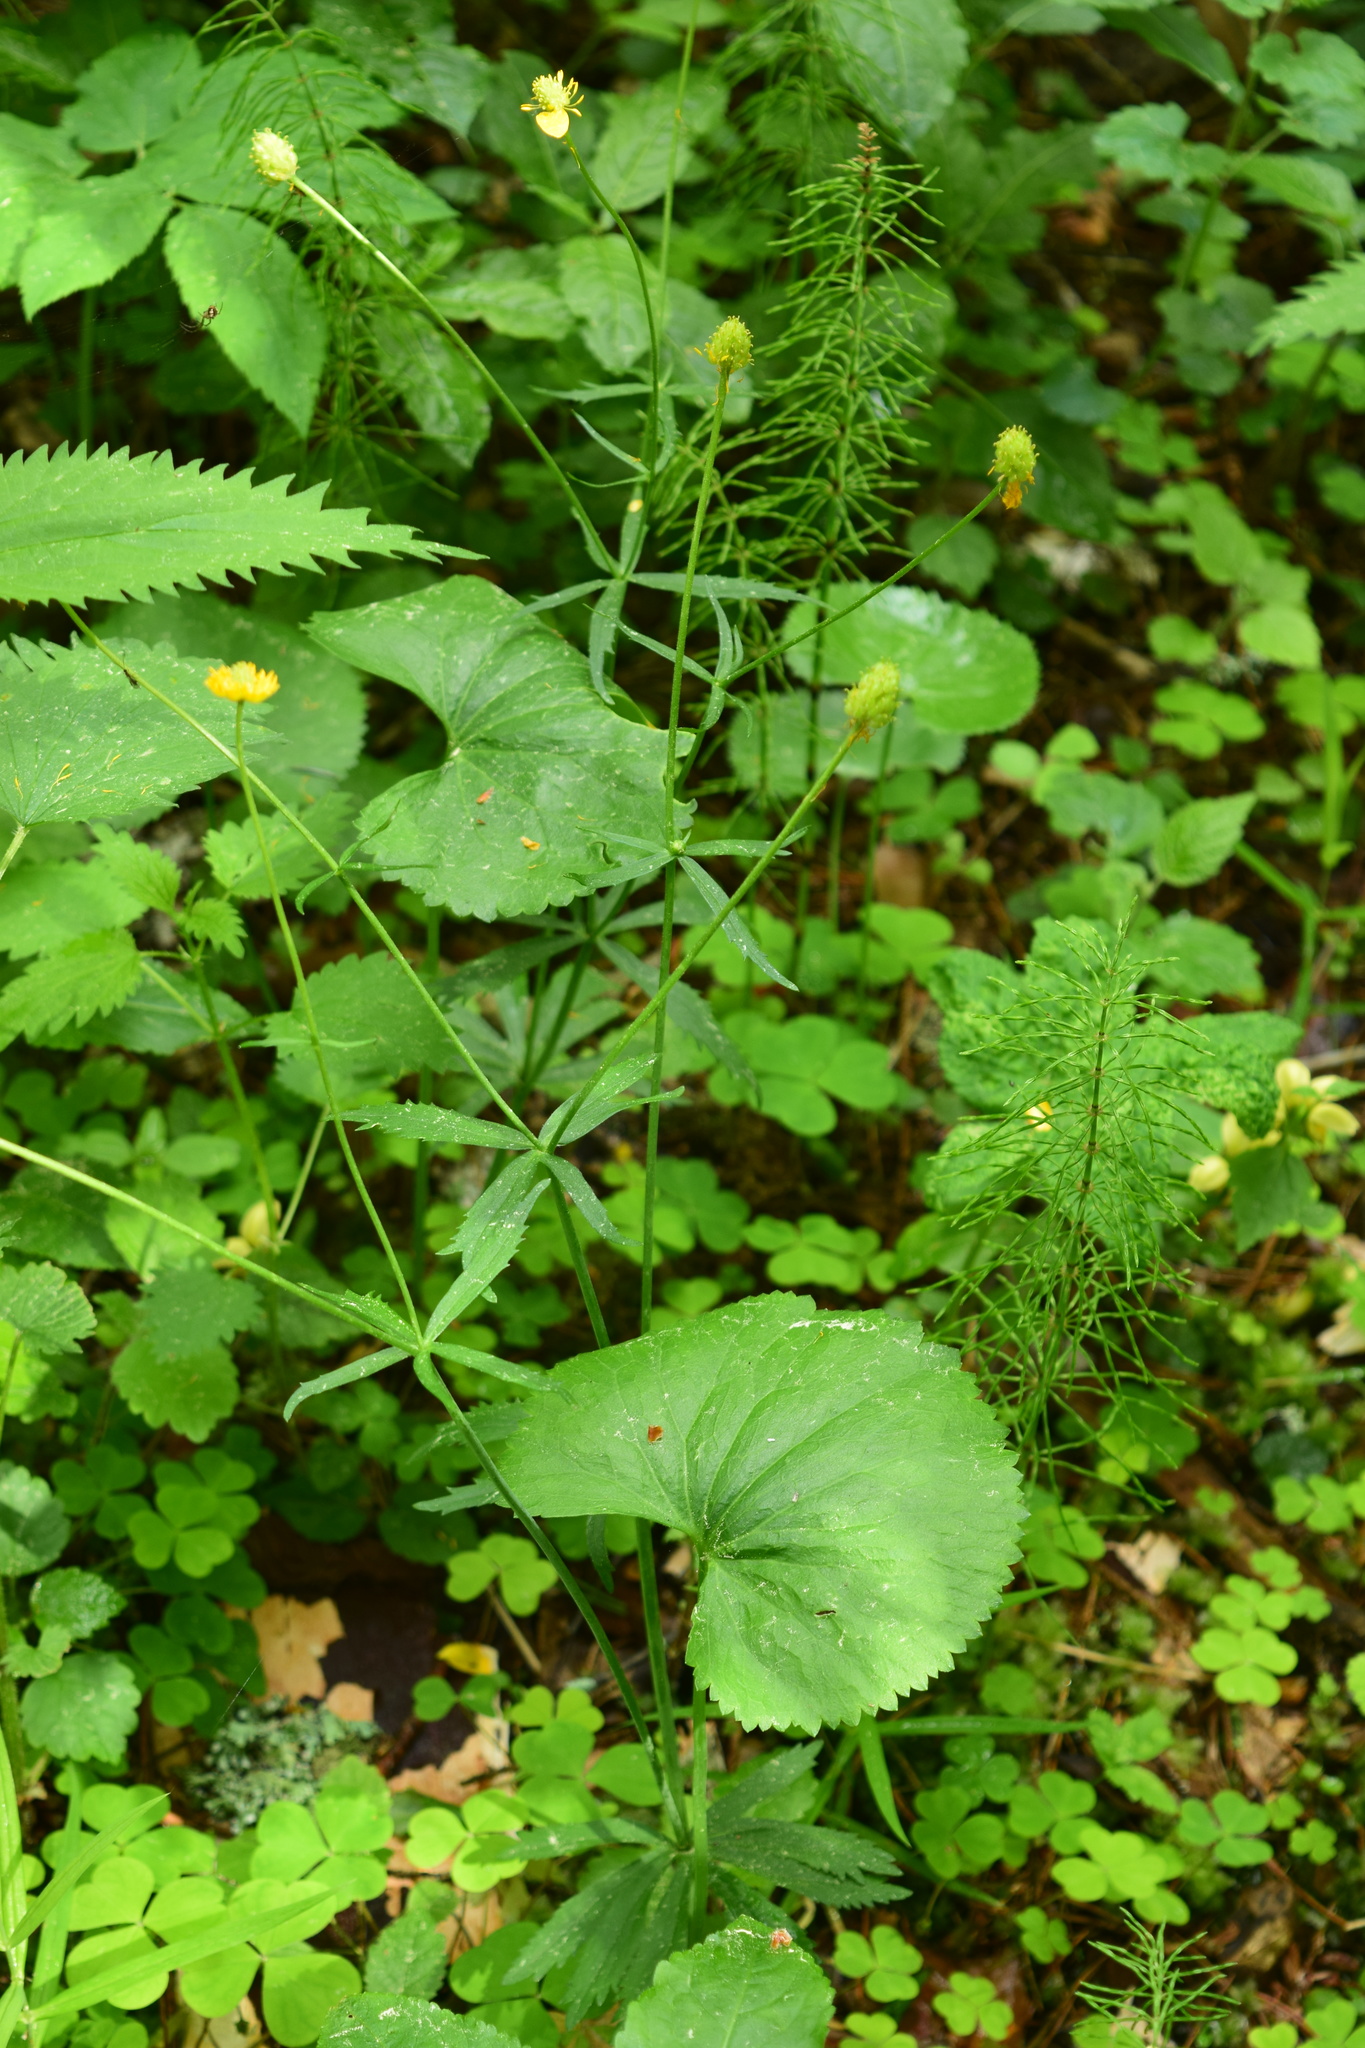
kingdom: Plantae
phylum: Tracheophyta
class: Magnoliopsida
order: Ranunculales
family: Ranunculaceae
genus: Ranunculus
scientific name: Ranunculus cassubicus
